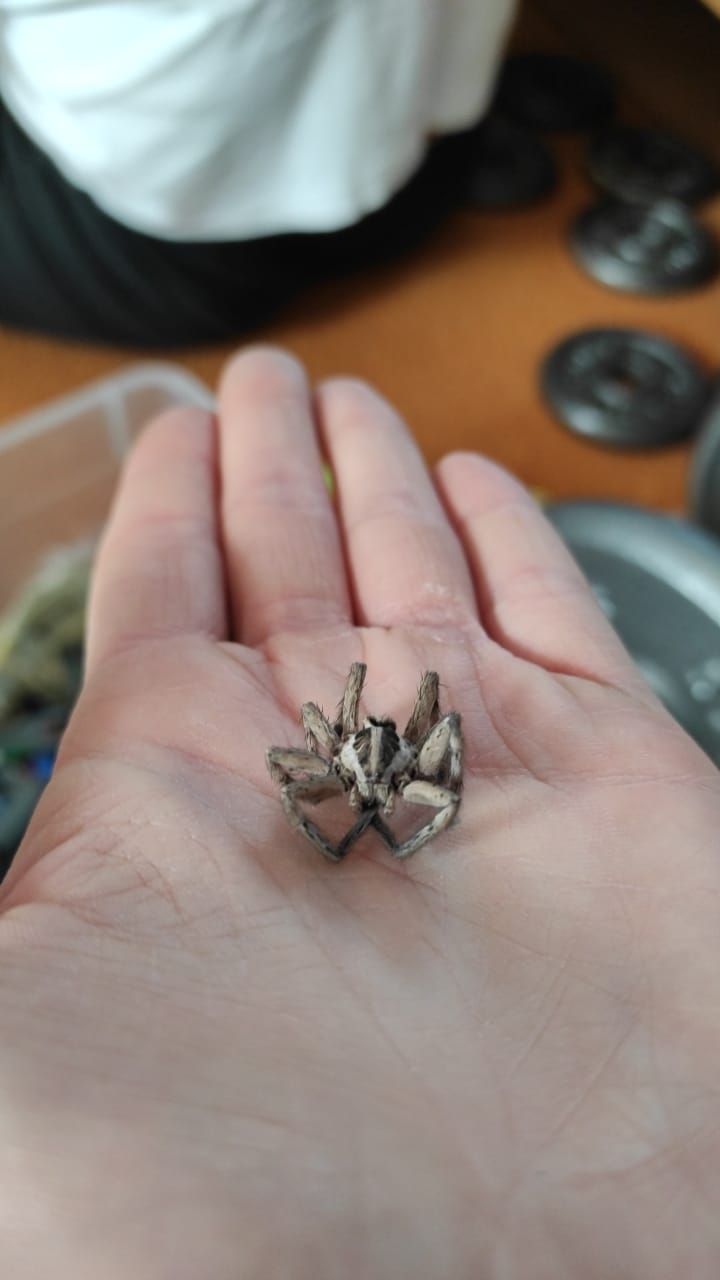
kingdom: Animalia
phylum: Arthropoda
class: Arachnida
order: Araneae
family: Lycosidae
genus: Hogna
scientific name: Hogna radiata
